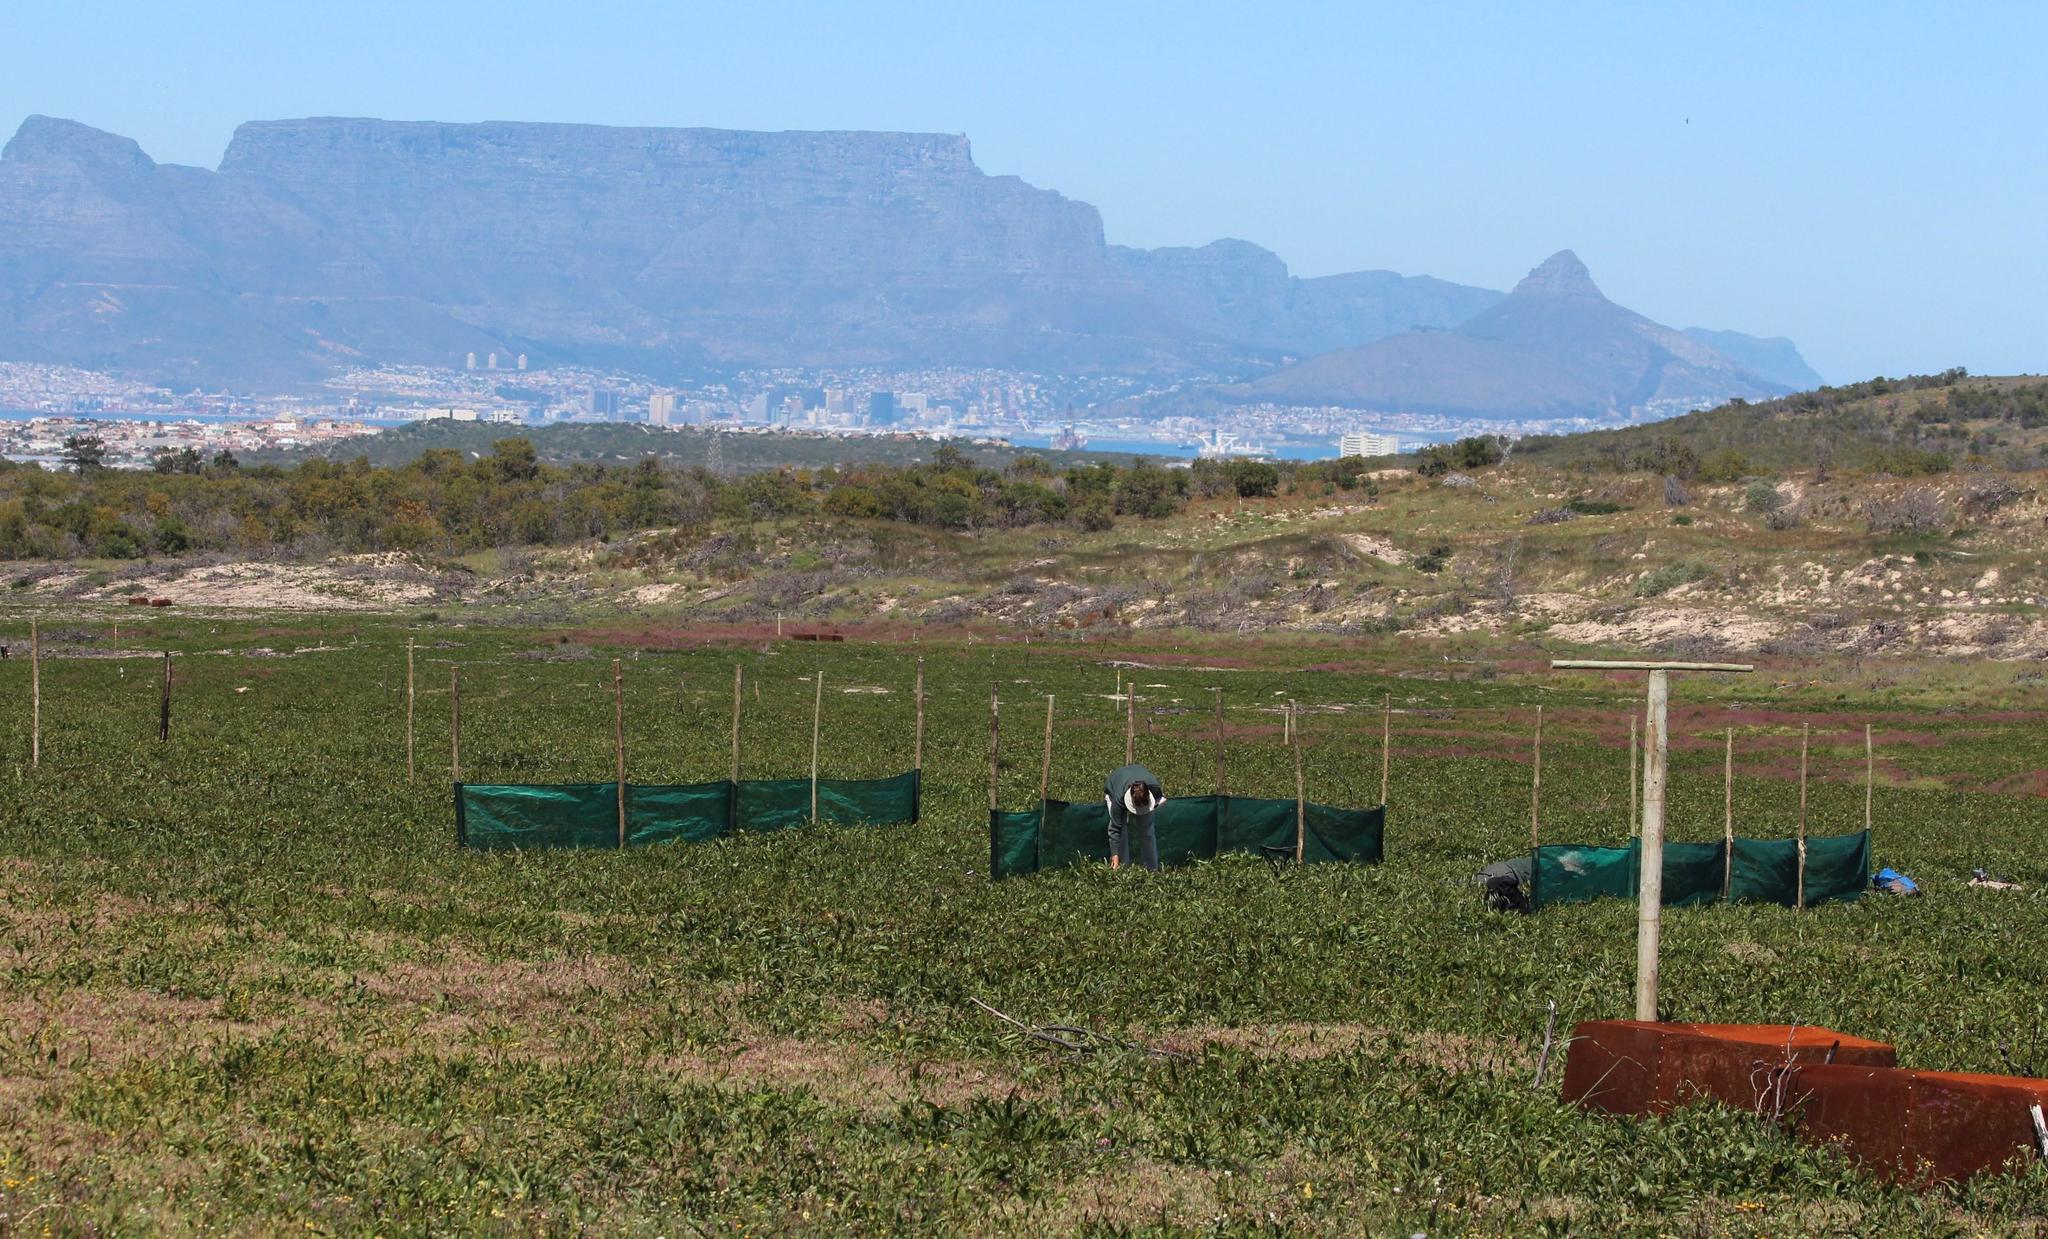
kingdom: Plantae
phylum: Tracheophyta
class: Magnoliopsida
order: Fabales
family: Fabaceae
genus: Acacia
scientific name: Acacia saligna
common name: Orange wattle
